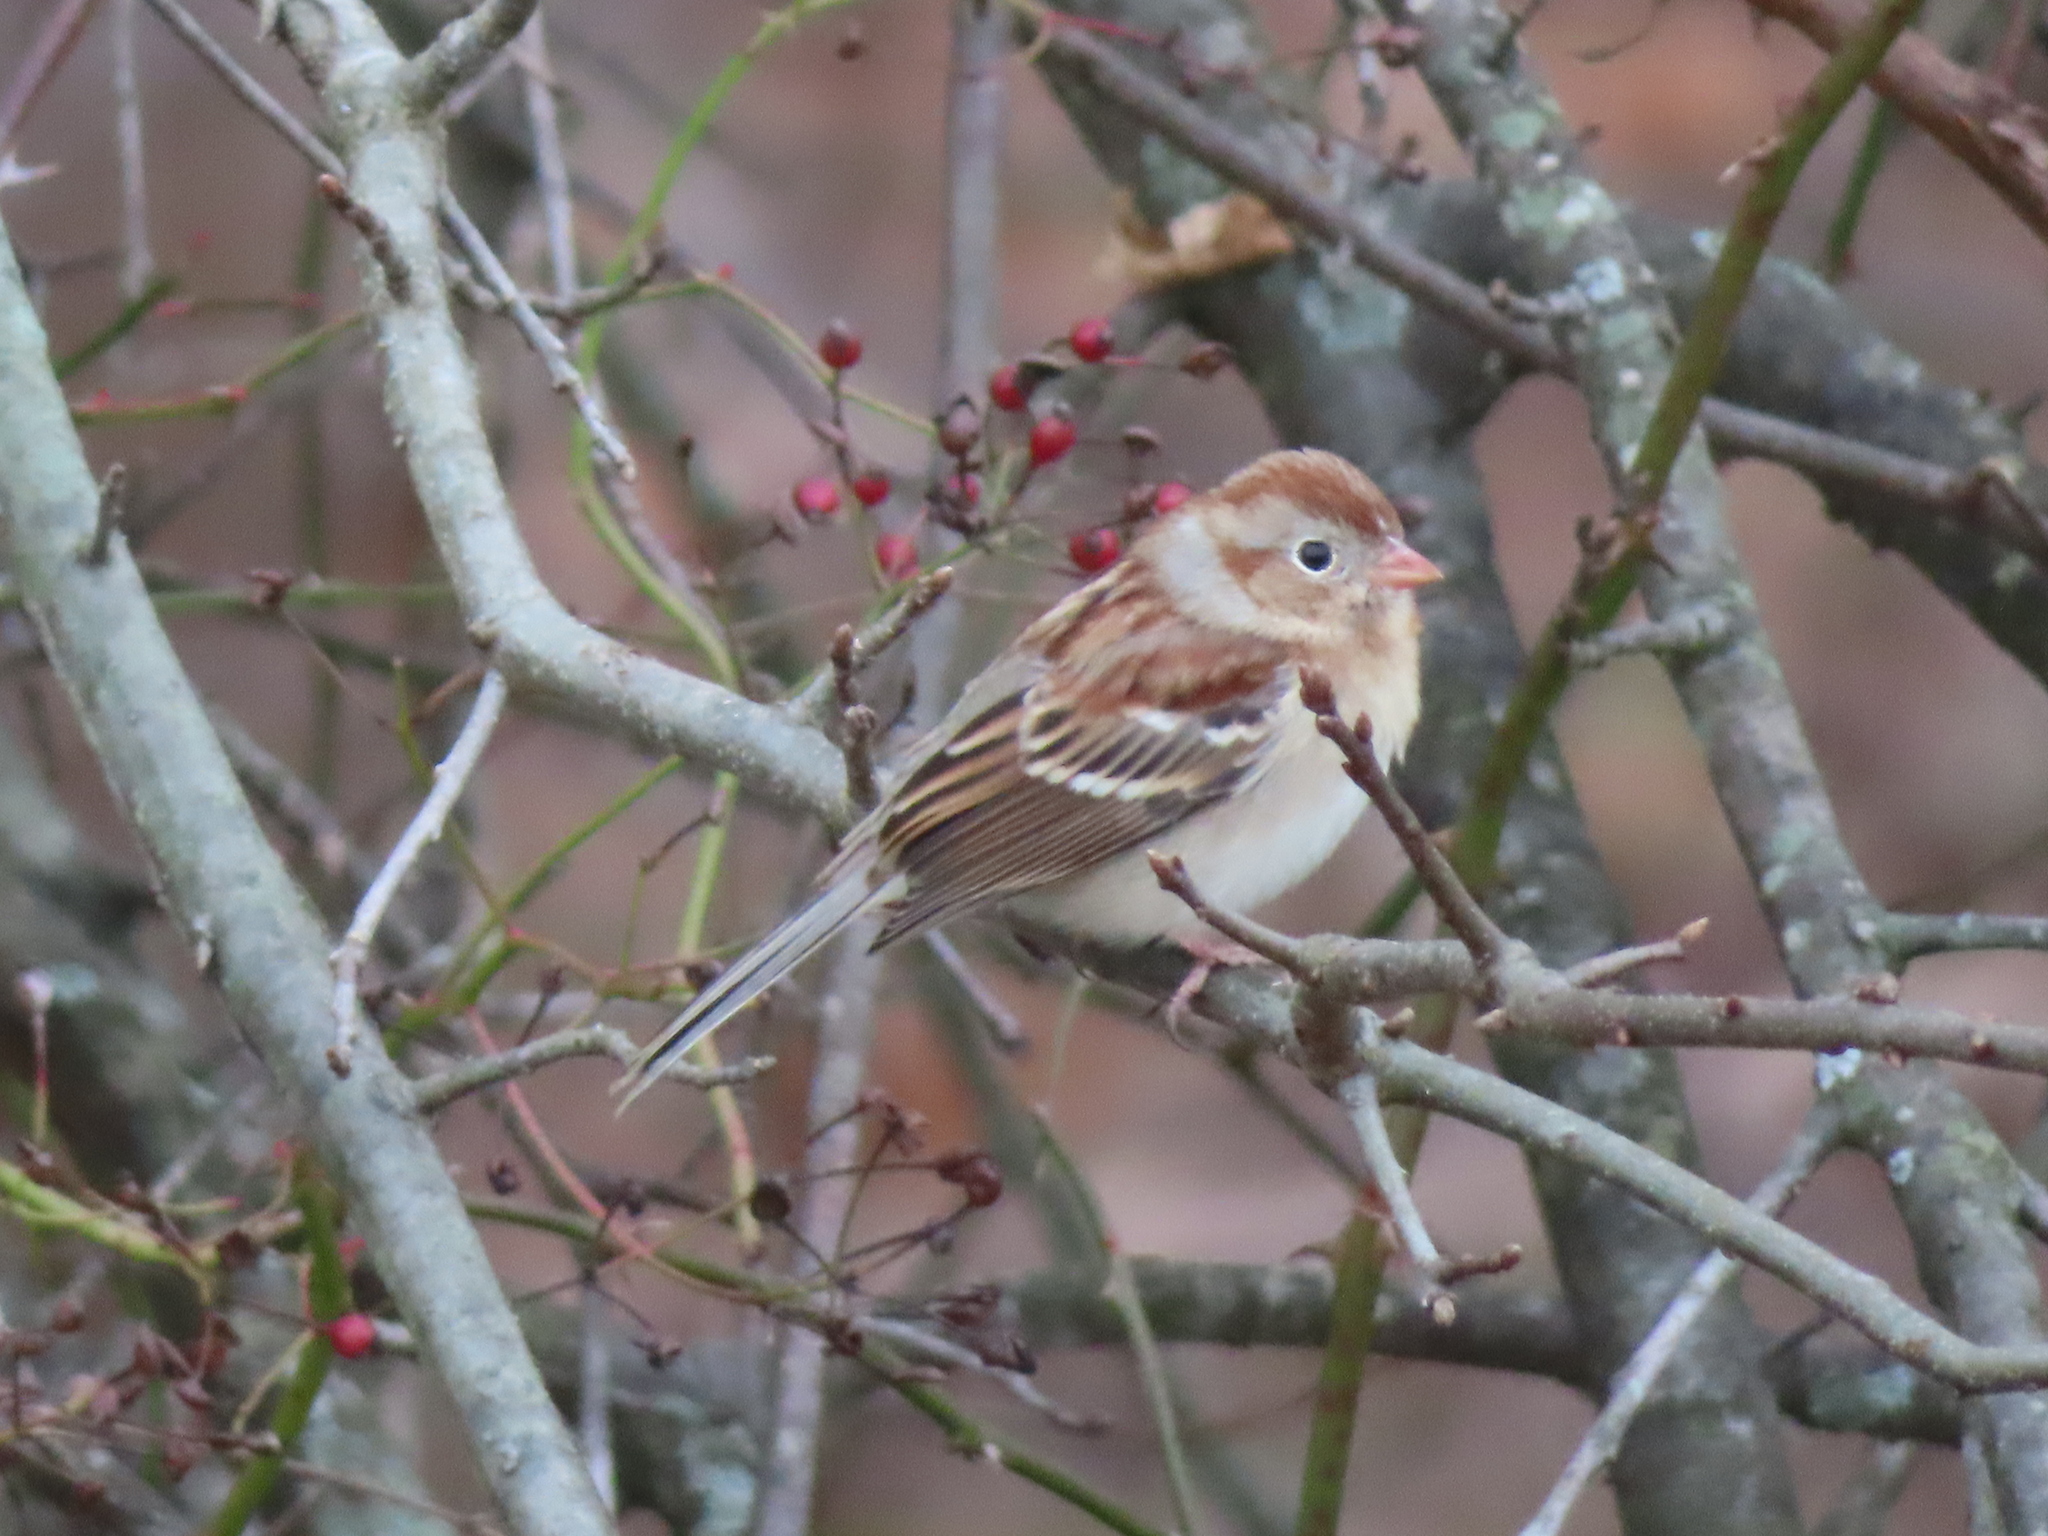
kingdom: Animalia
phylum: Chordata
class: Aves
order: Passeriformes
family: Passerellidae
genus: Spizella
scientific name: Spizella pusilla
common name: Field sparrow
